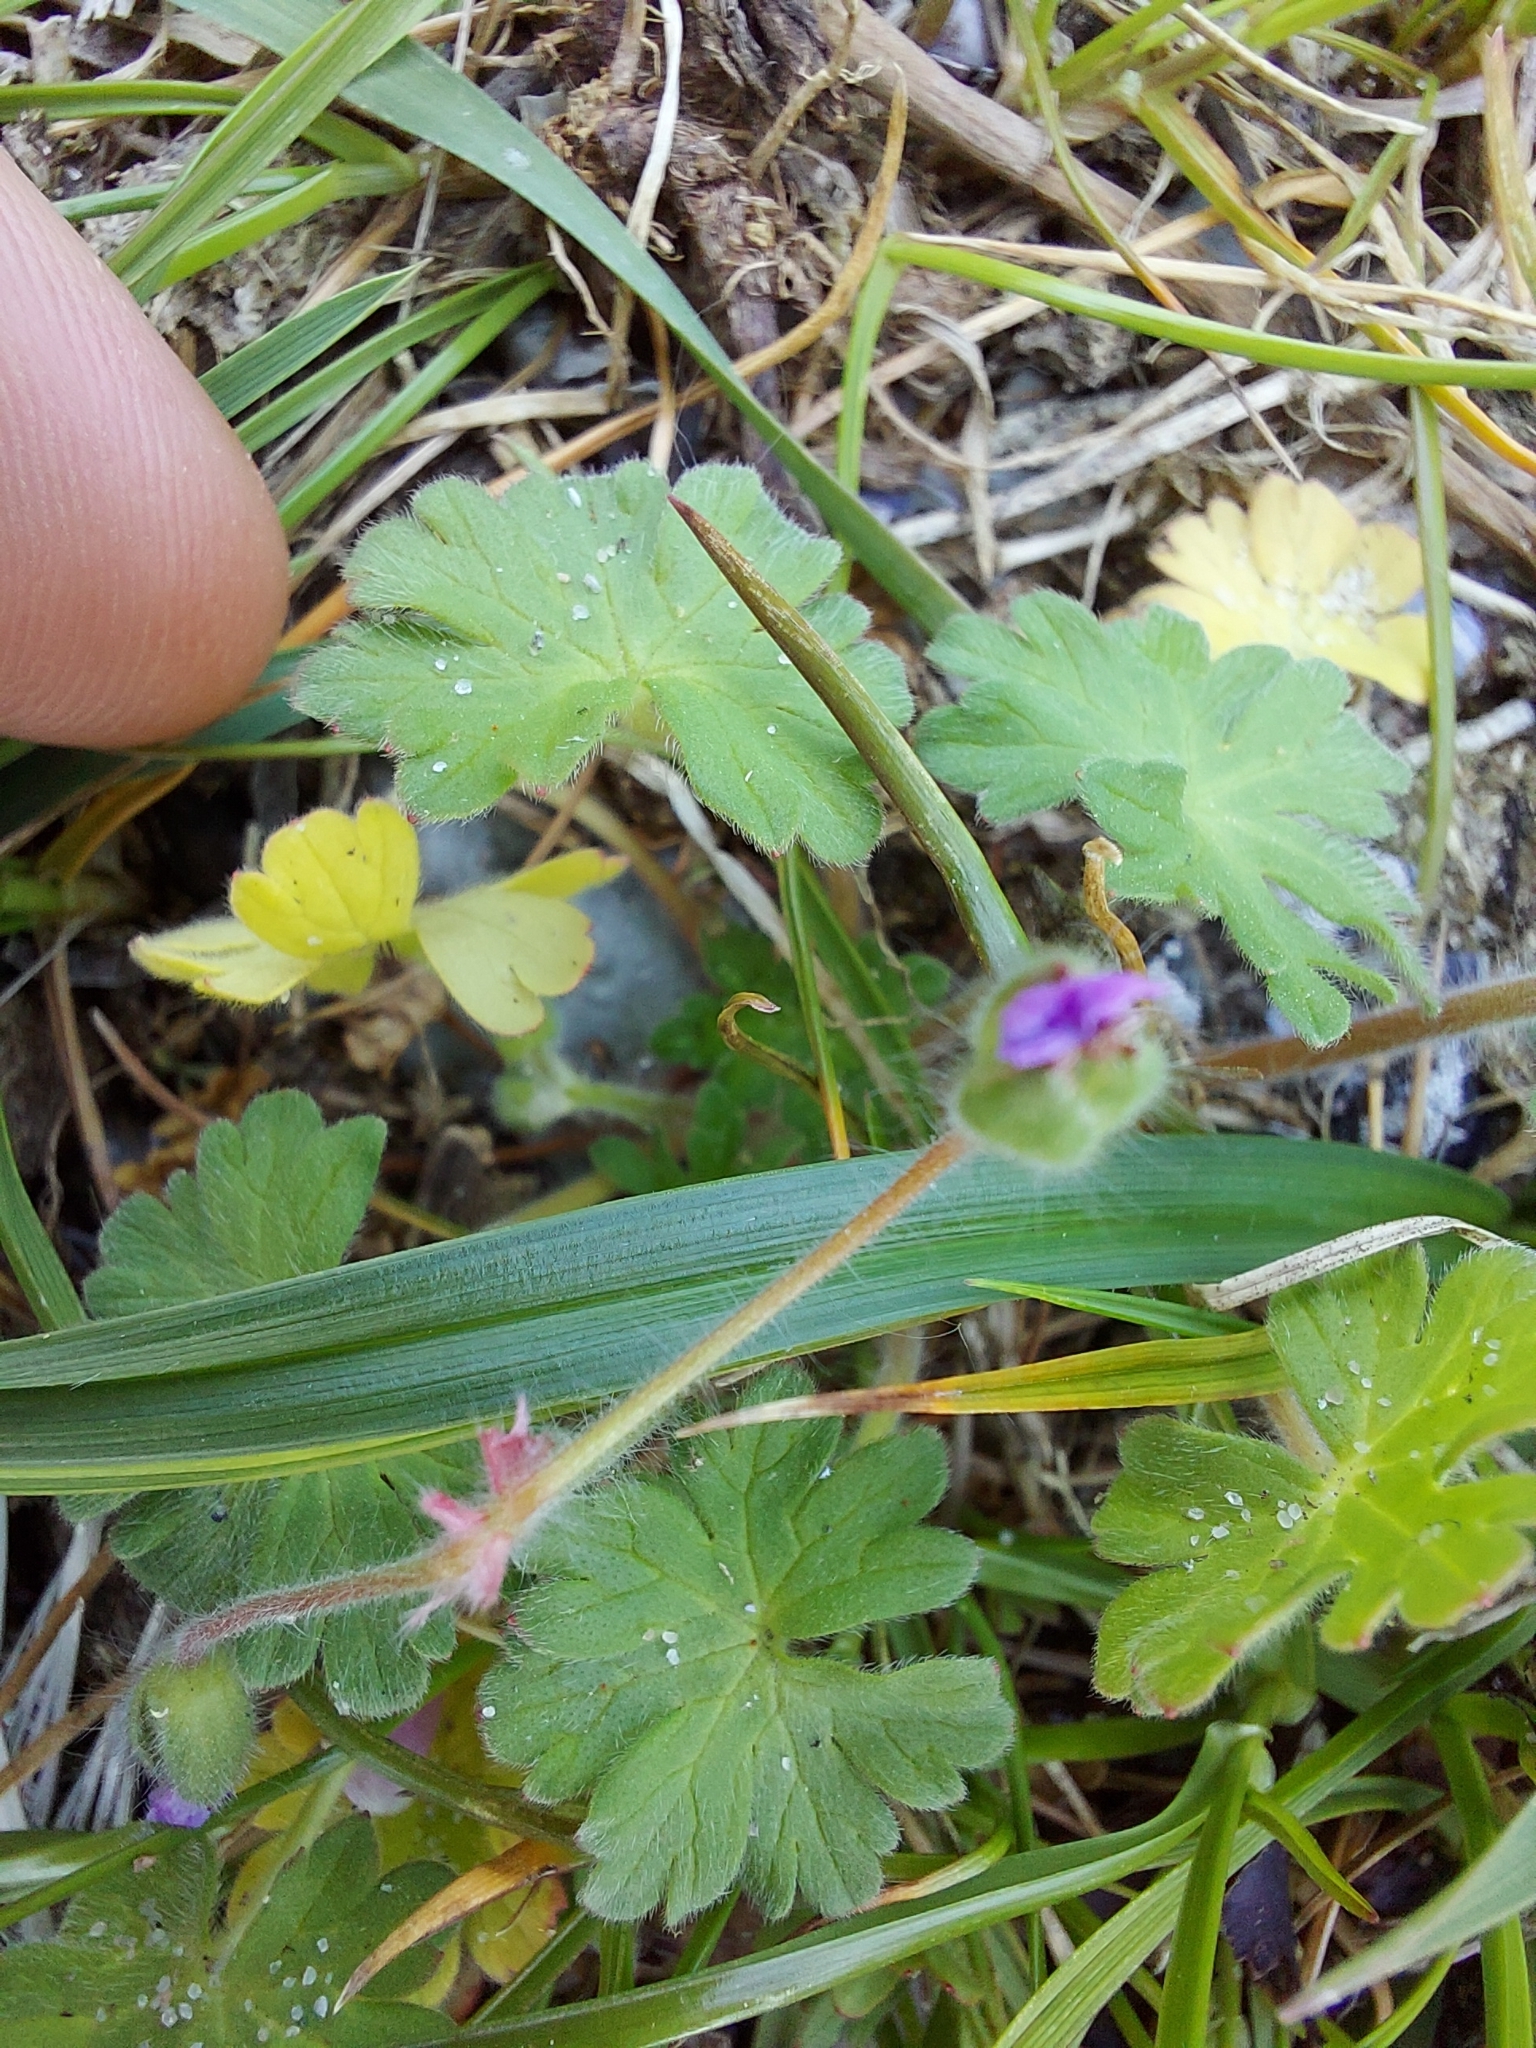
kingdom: Plantae
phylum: Tracheophyta
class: Magnoliopsida
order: Geraniales
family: Geraniaceae
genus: Geranium
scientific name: Geranium molle
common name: Dove's-foot crane's-bill
